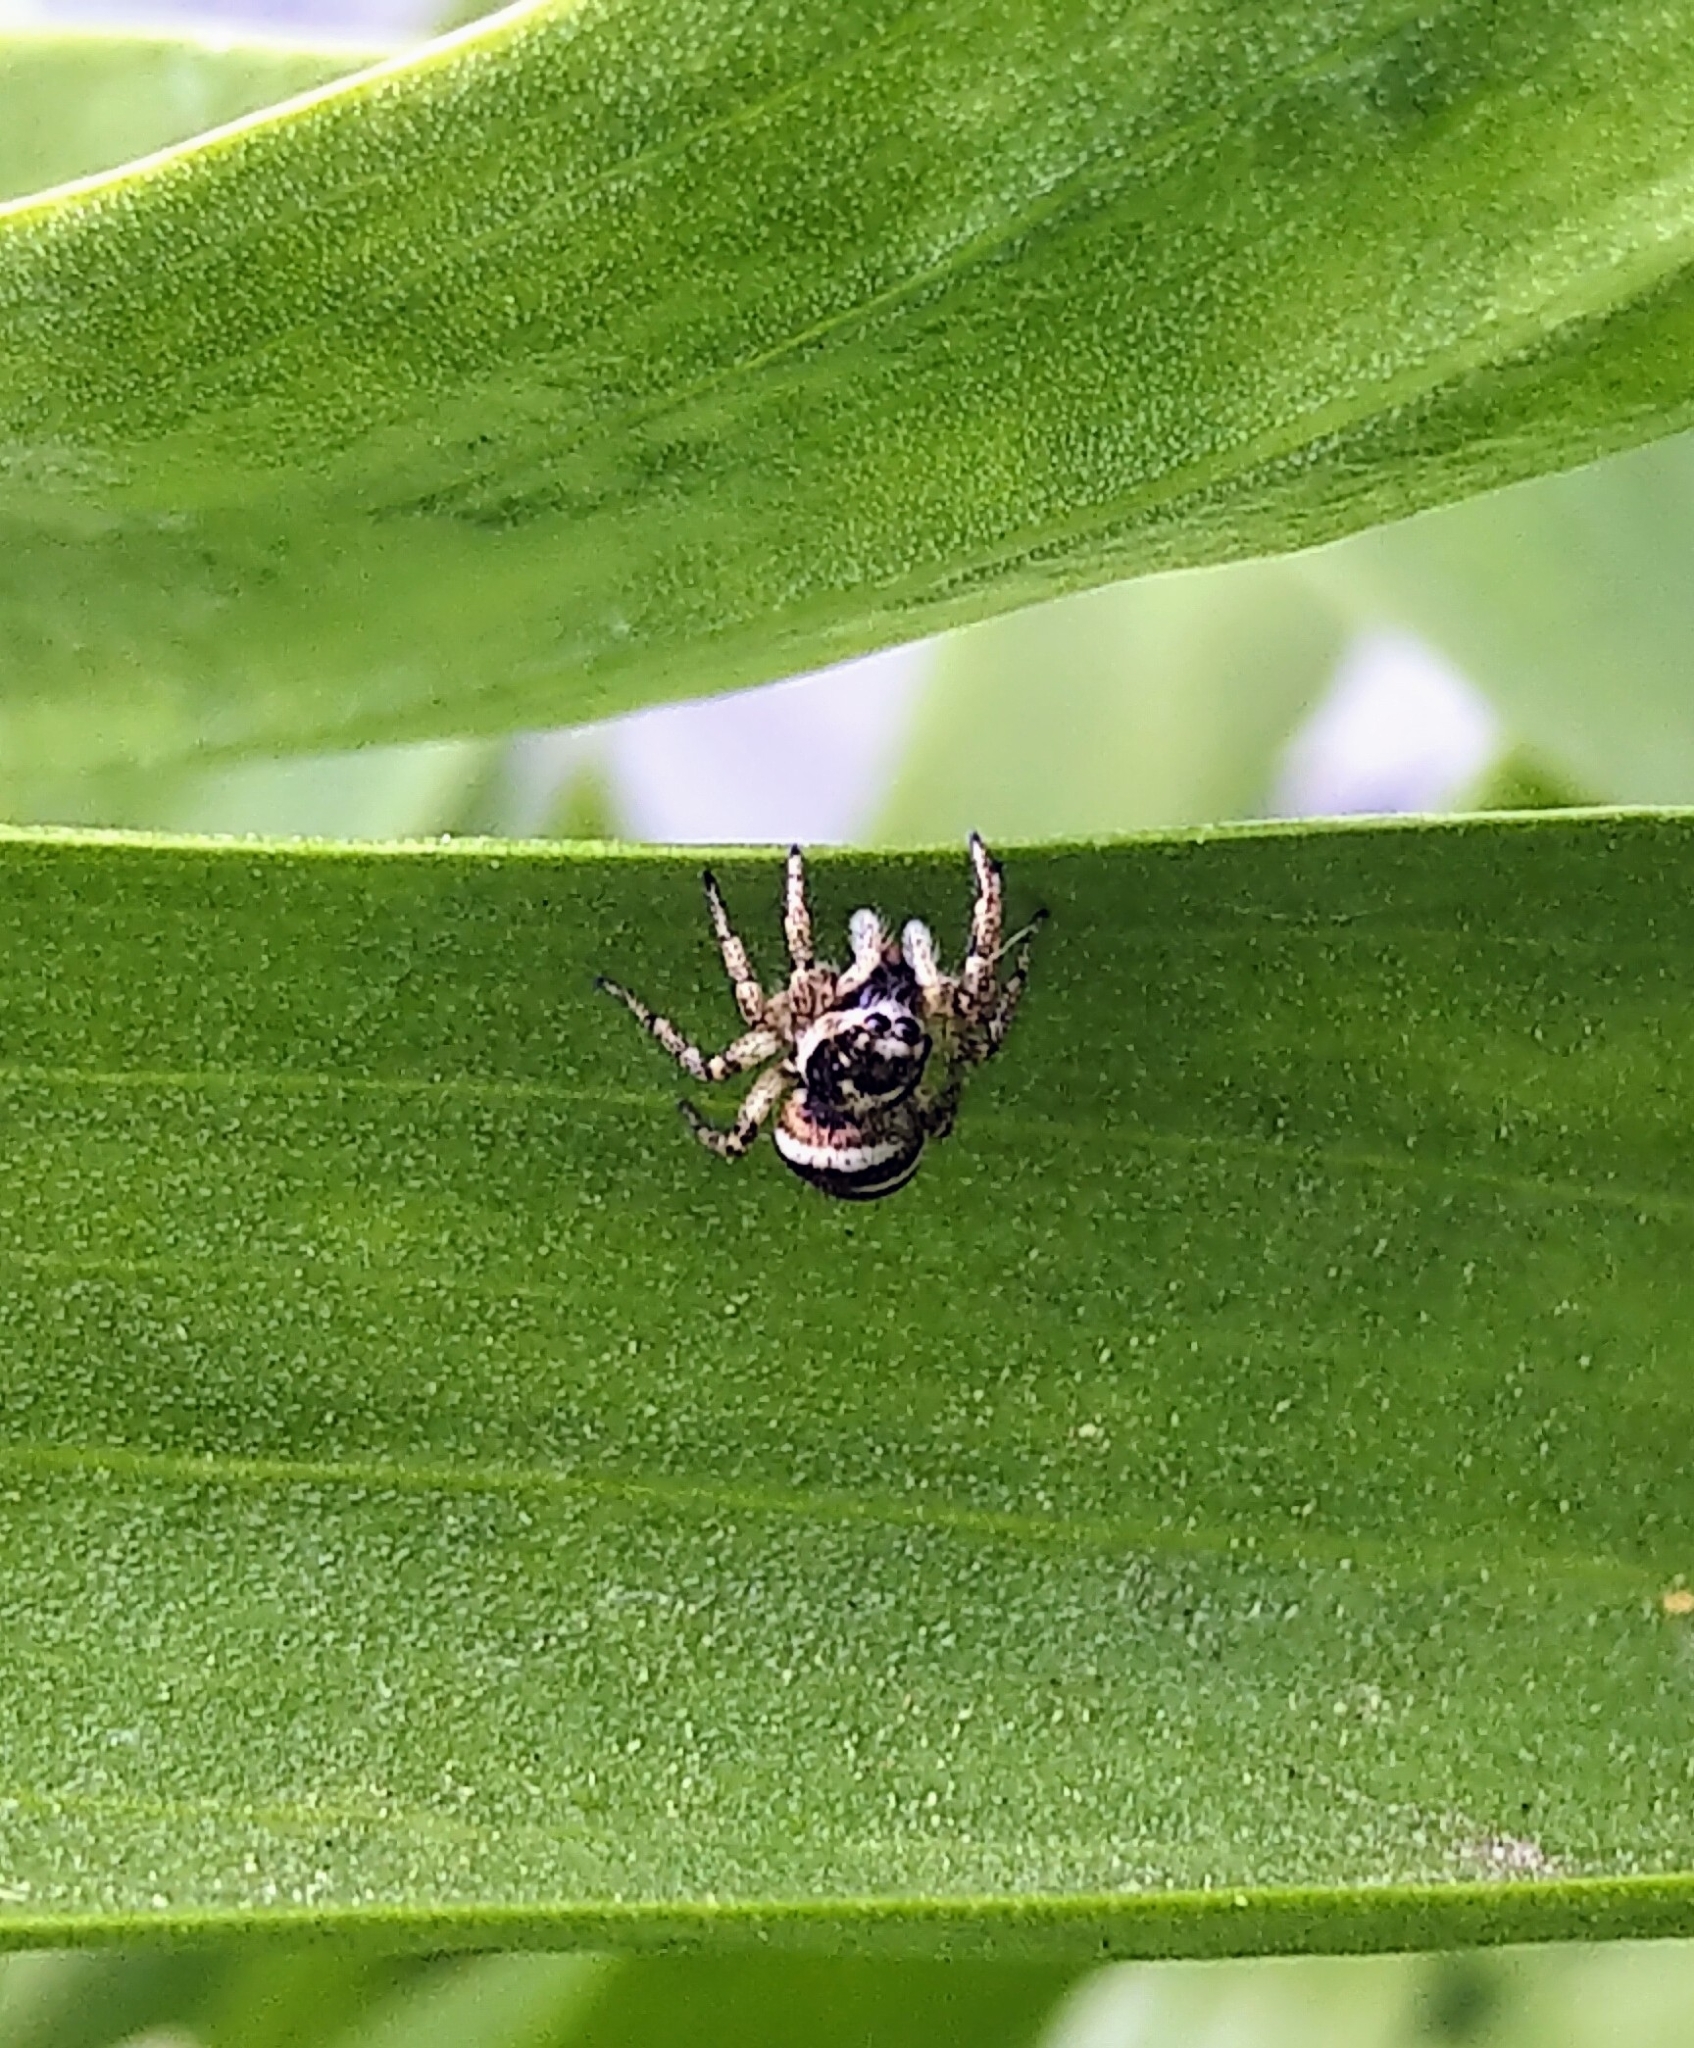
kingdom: Animalia
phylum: Arthropoda
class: Arachnida
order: Araneae
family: Salticidae
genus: Salticus
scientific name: Salticus scenicus
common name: Zebra jumper
